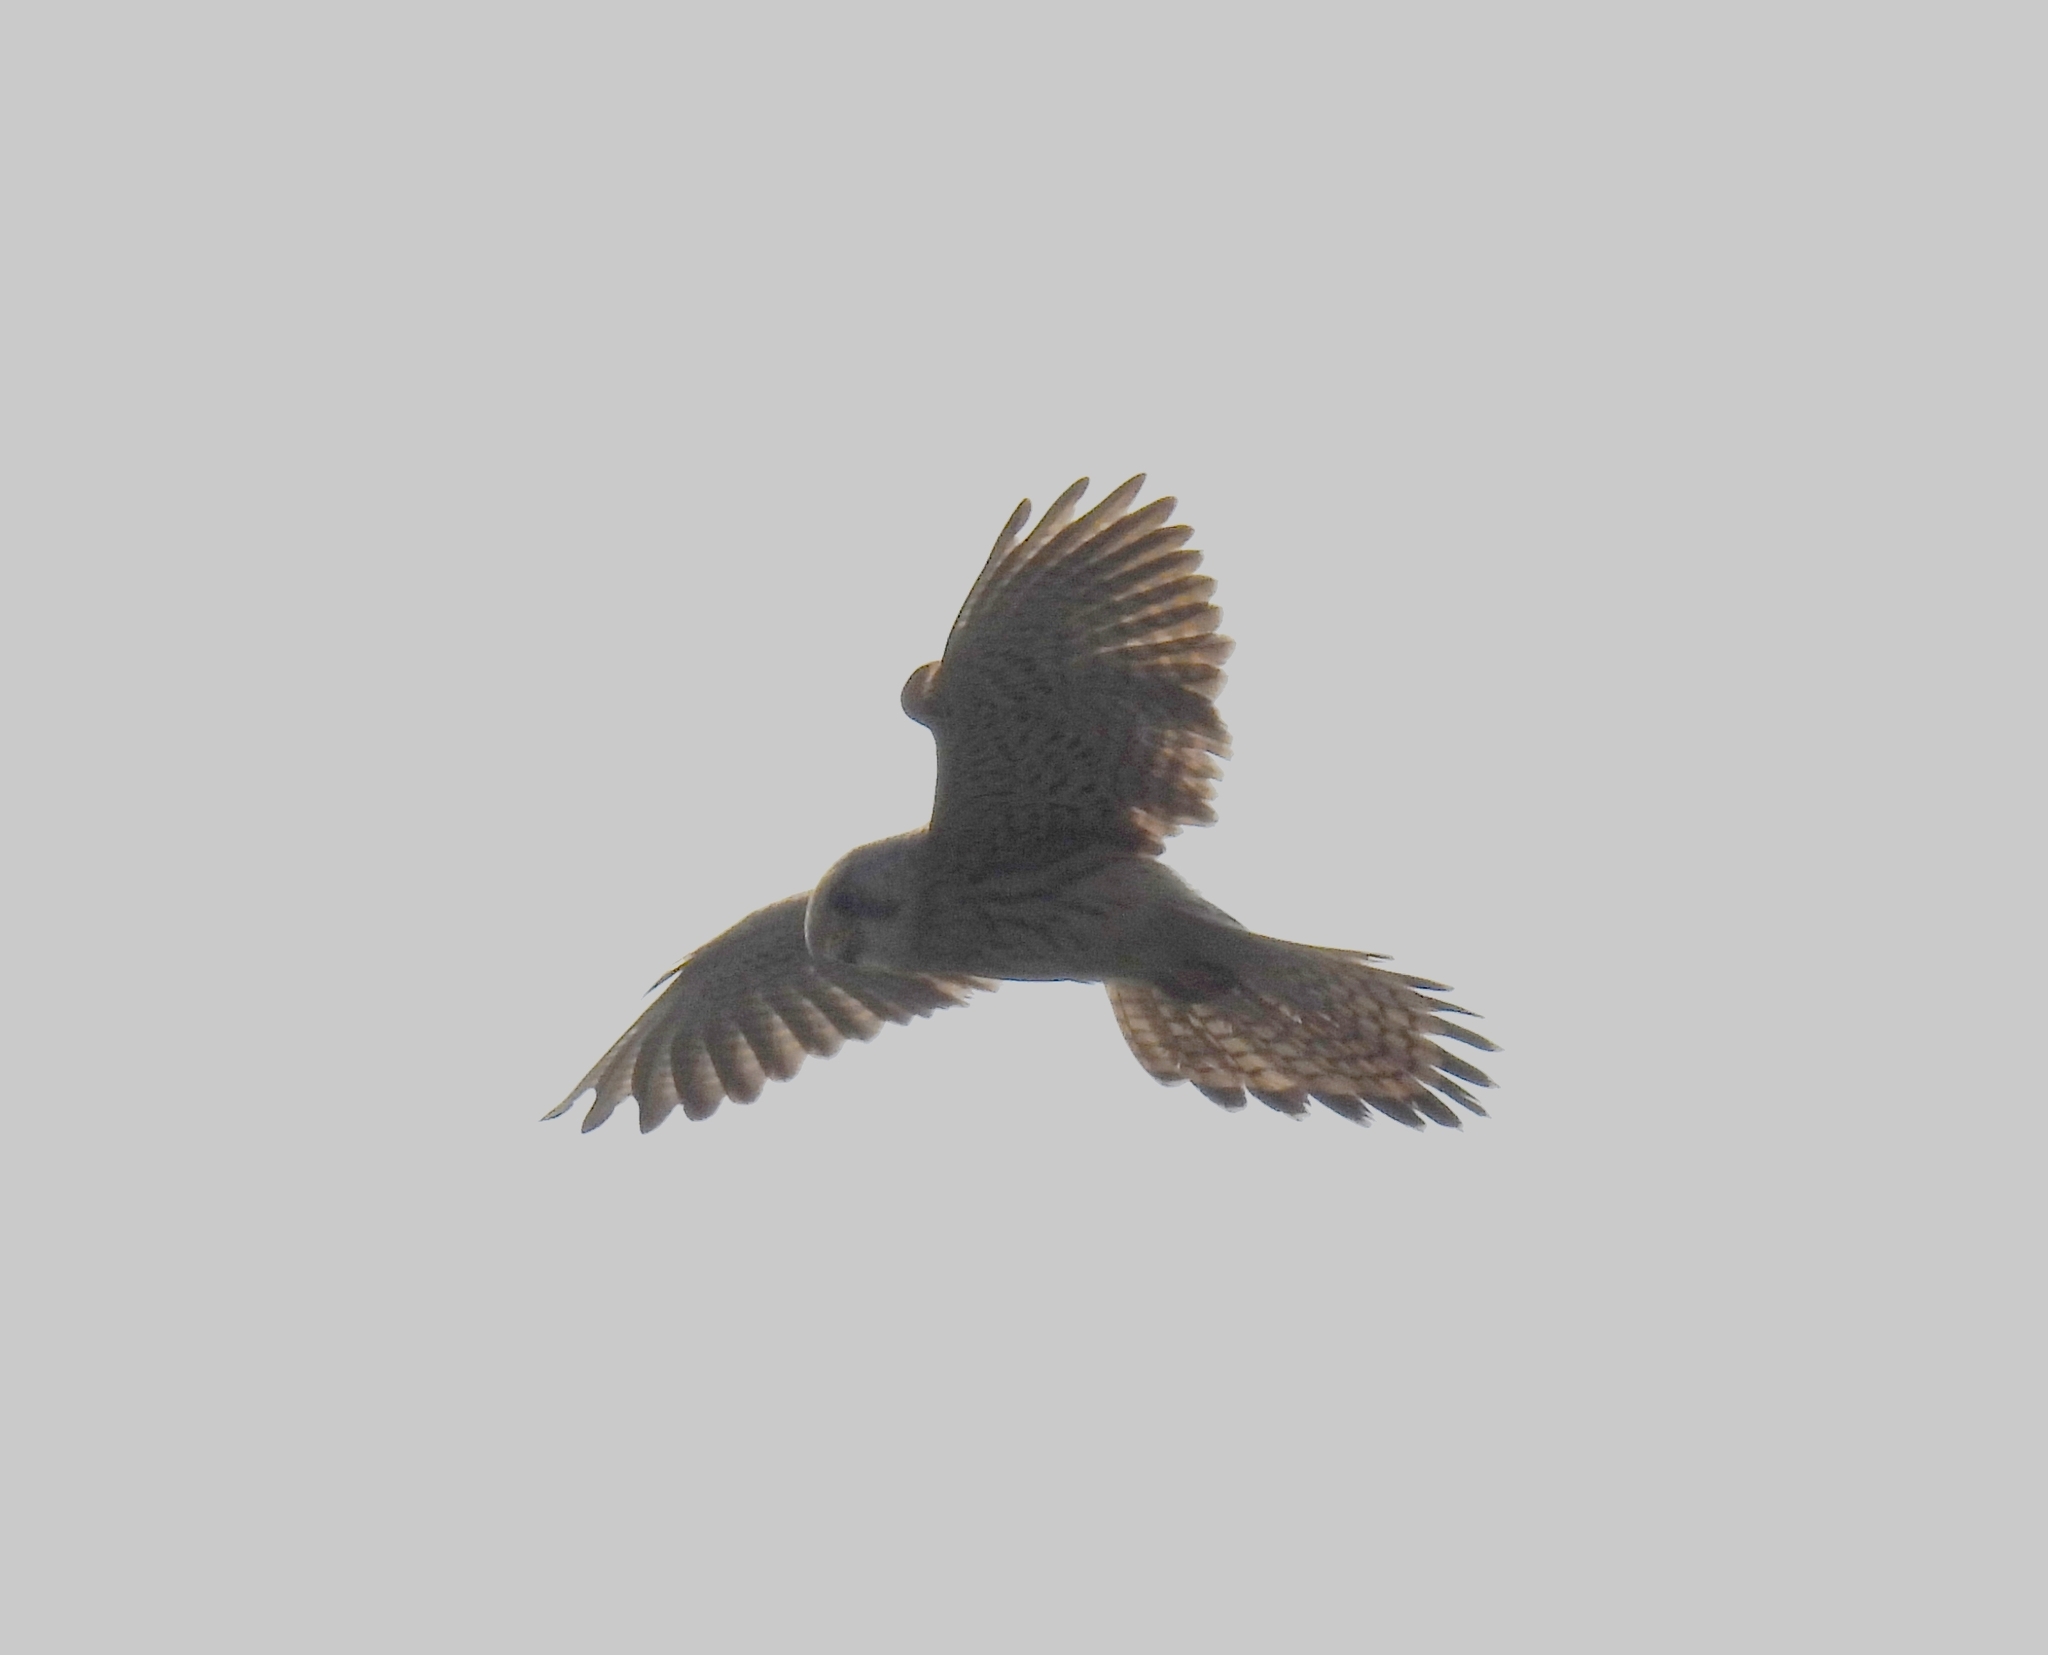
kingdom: Animalia
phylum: Chordata
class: Aves
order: Falconiformes
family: Falconidae
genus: Falco
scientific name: Falco tinnunculus
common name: Common kestrel
